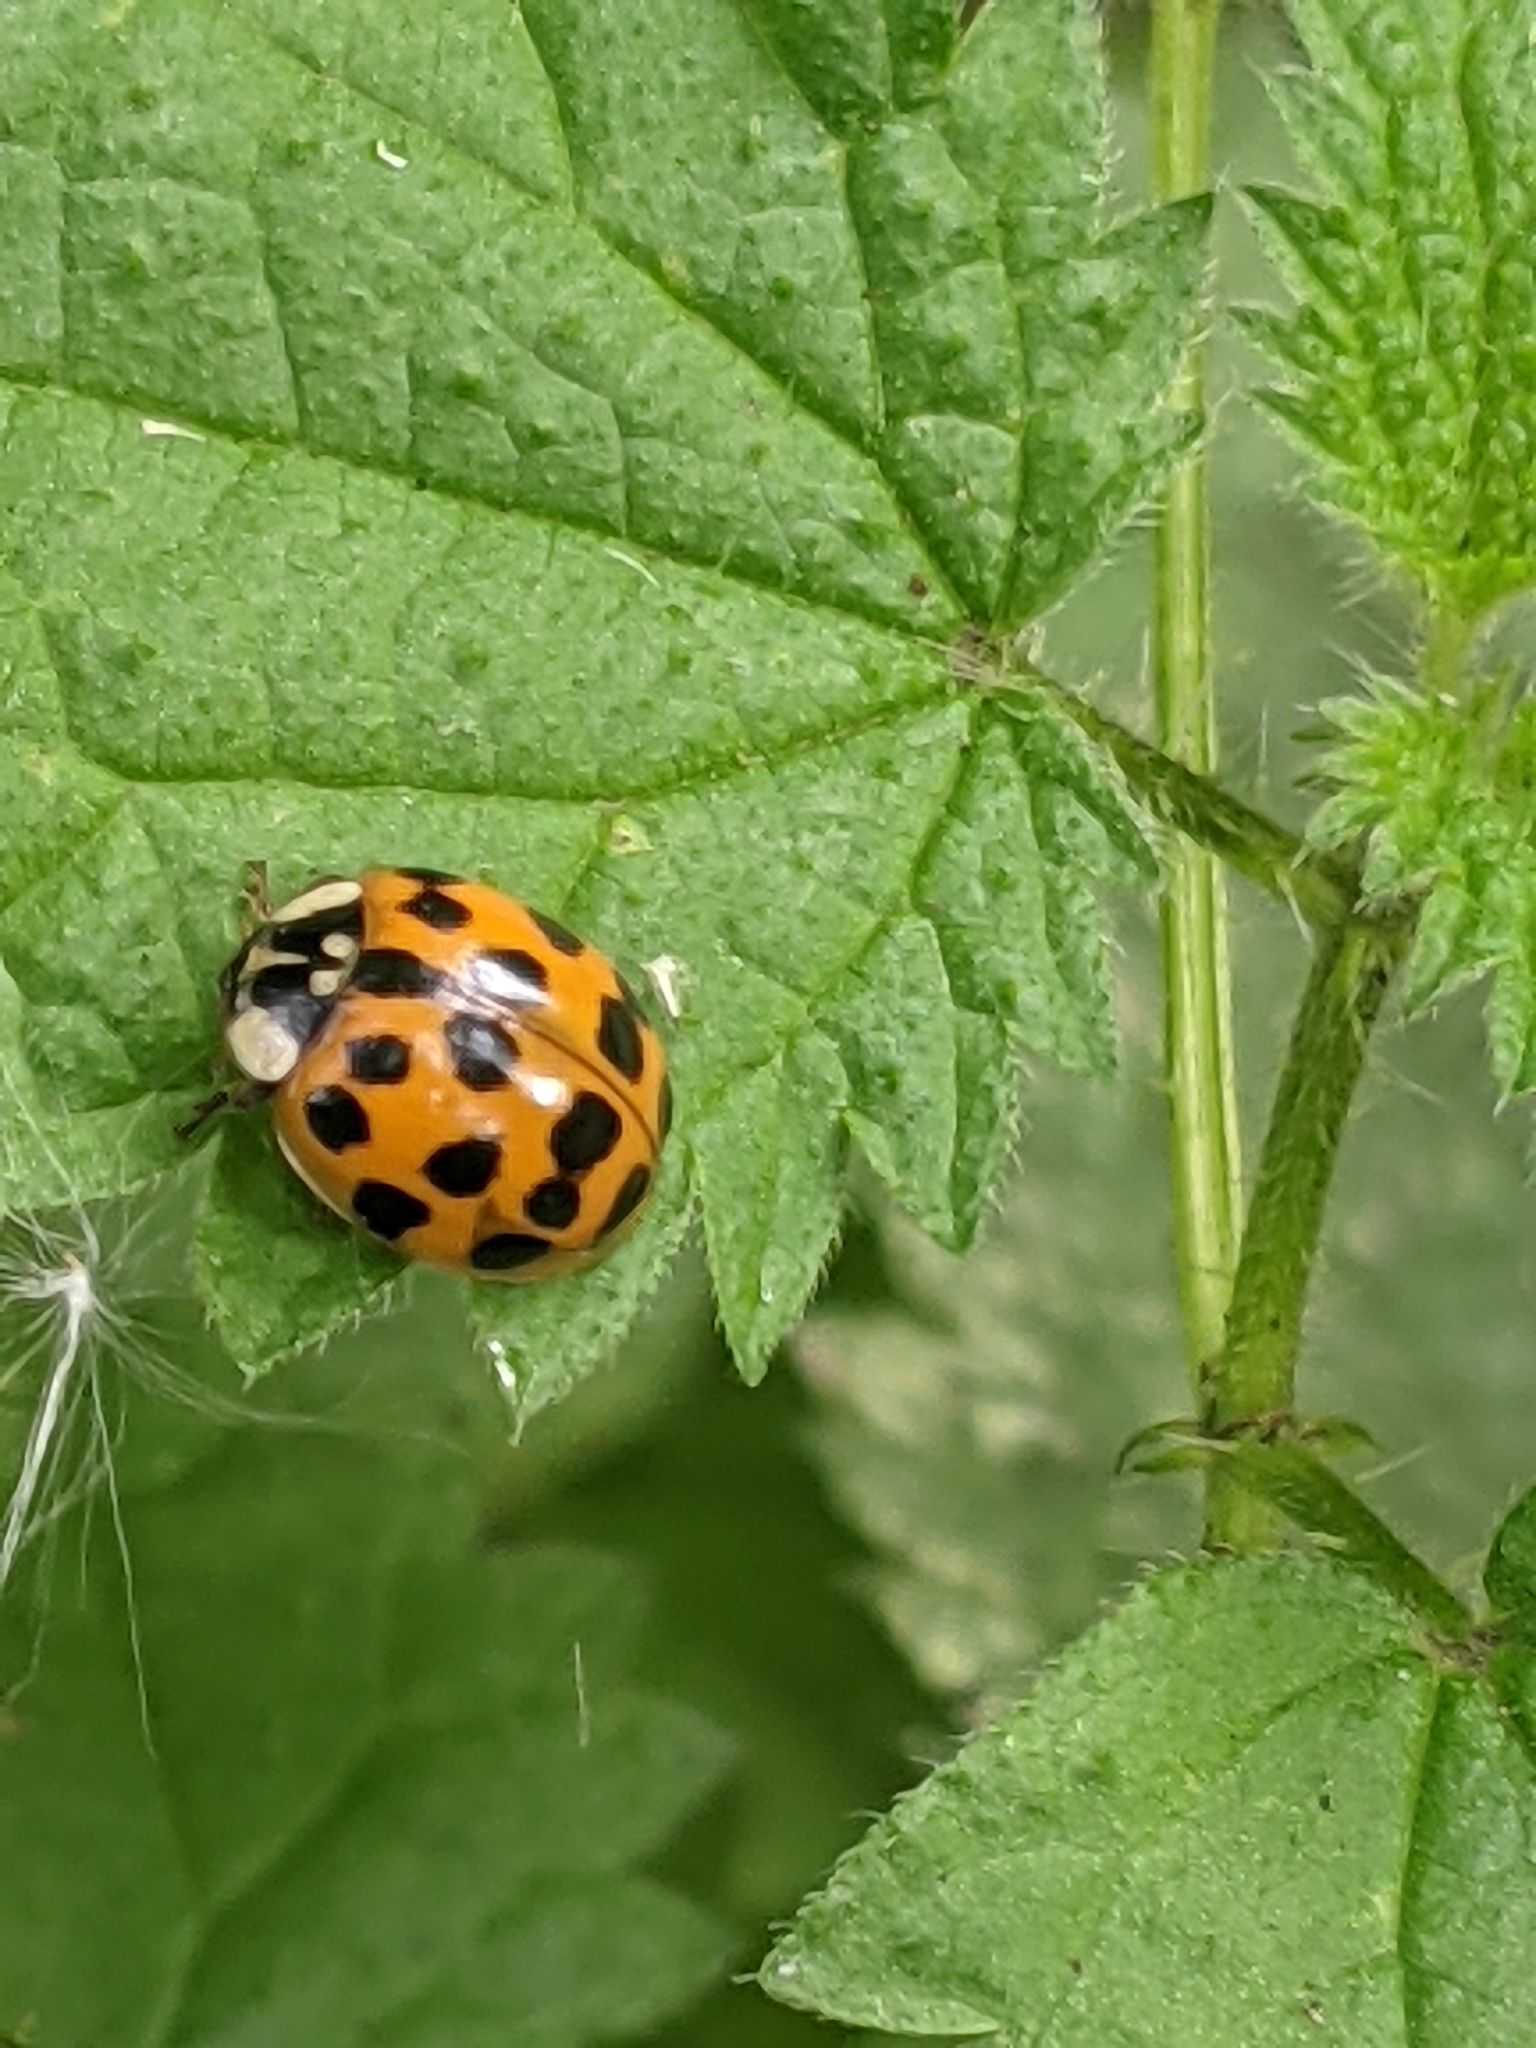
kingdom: Animalia
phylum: Arthropoda
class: Insecta
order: Coleoptera
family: Coccinellidae
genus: Harmonia
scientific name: Harmonia axyridis
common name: Harlequin ladybird
